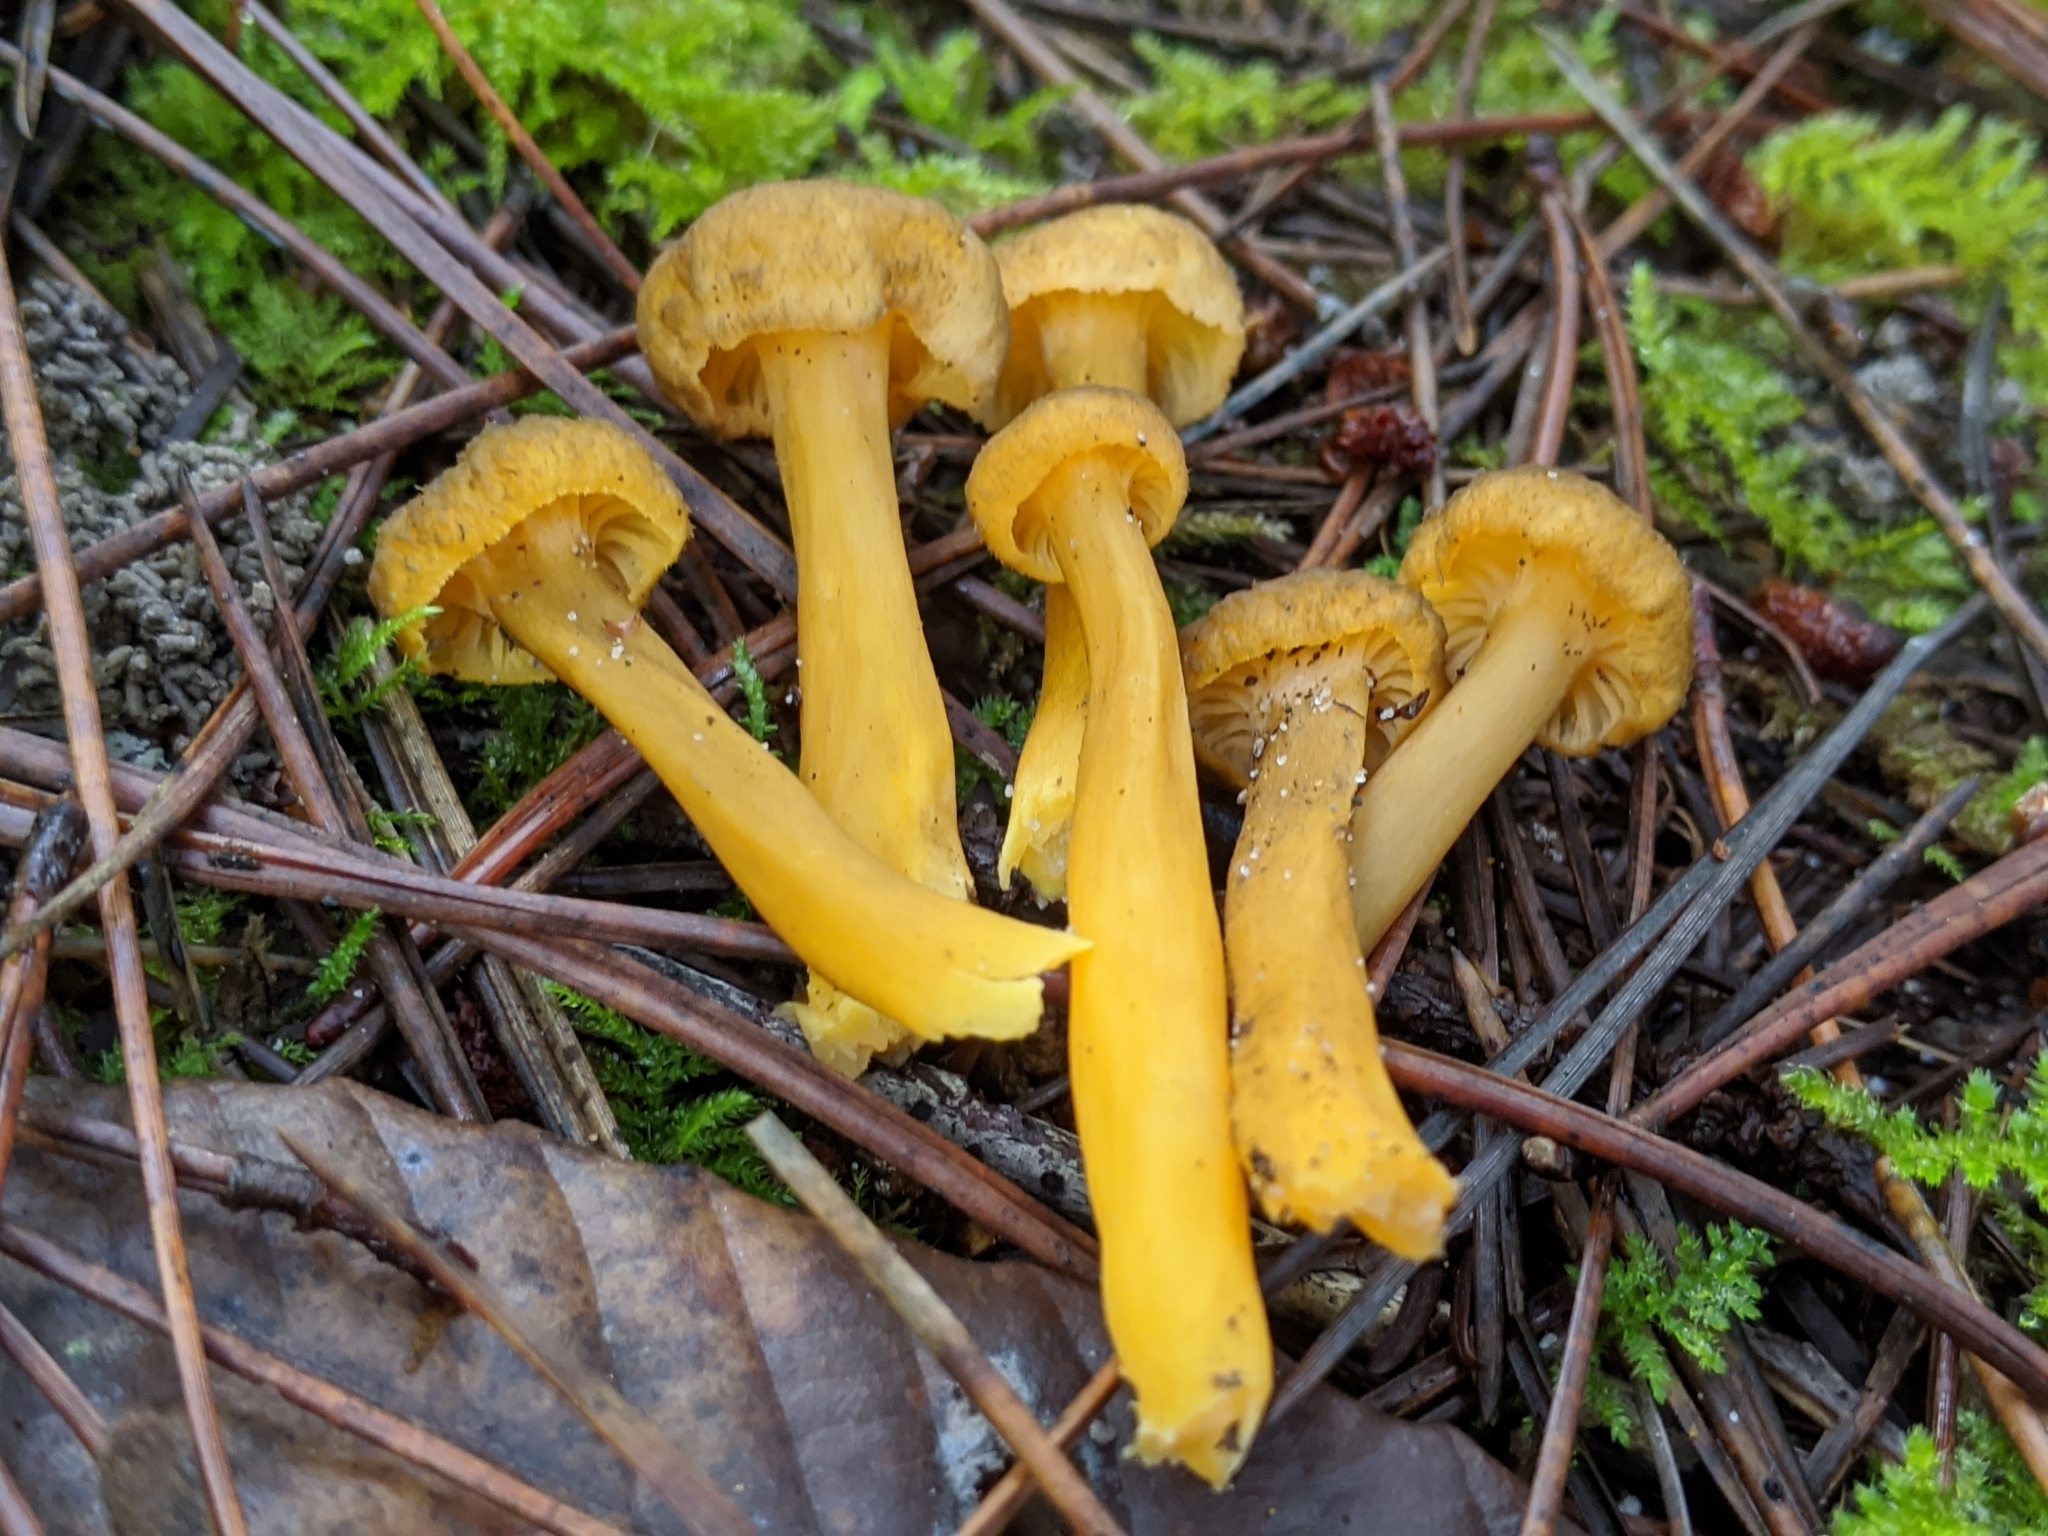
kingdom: Fungi
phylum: Basidiomycota
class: Agaricomycetes
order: Cantharellales
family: Hydnaceae
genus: Craterellus
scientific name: Craterellus tubaeformis
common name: Yellowfoot
